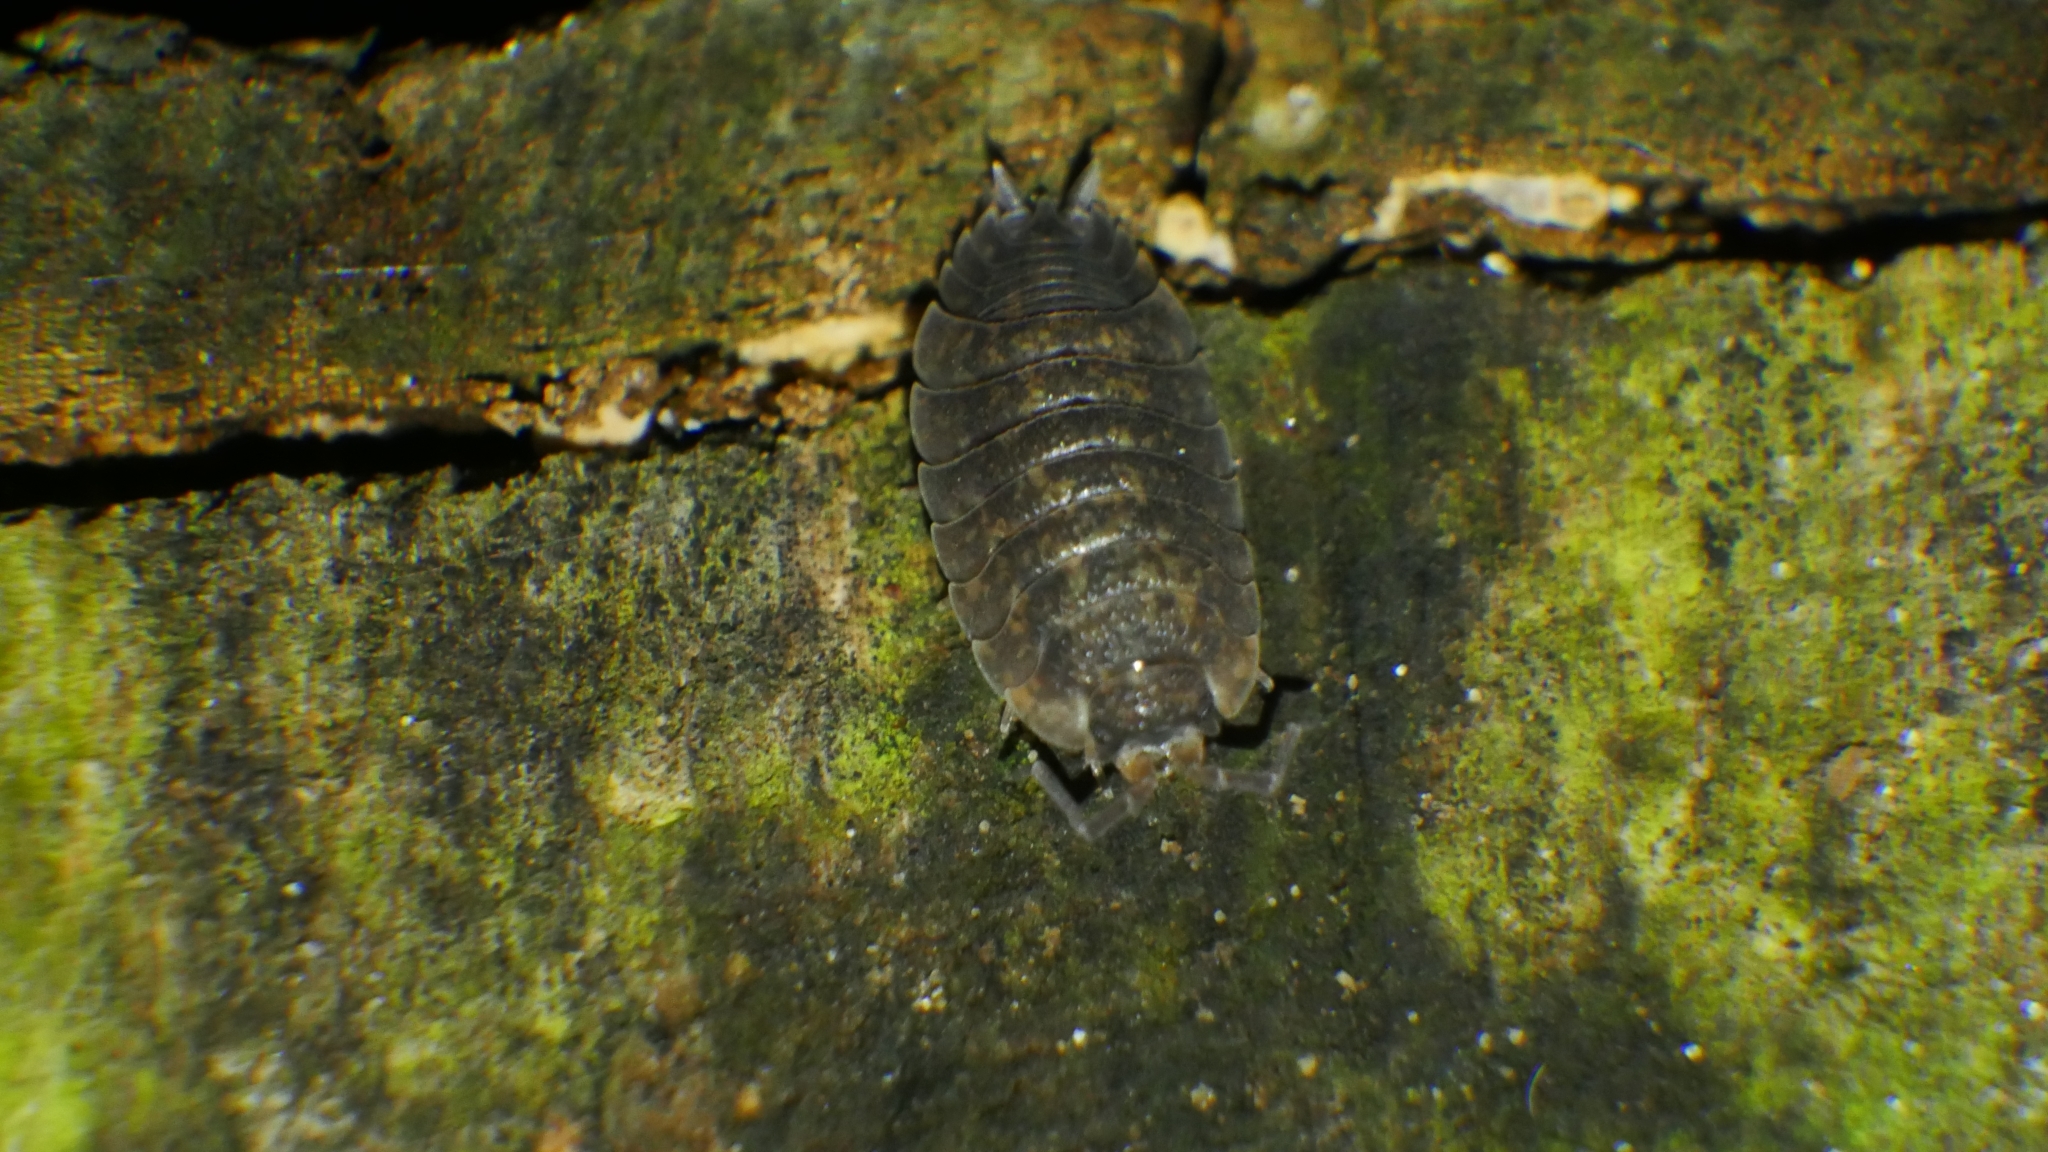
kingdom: Animalia
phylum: Arthropoda
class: Malacostraca
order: Isopoda
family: Porcellionidae
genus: Porcellio
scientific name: Porcellio scaber
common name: Common rough woodlouse
